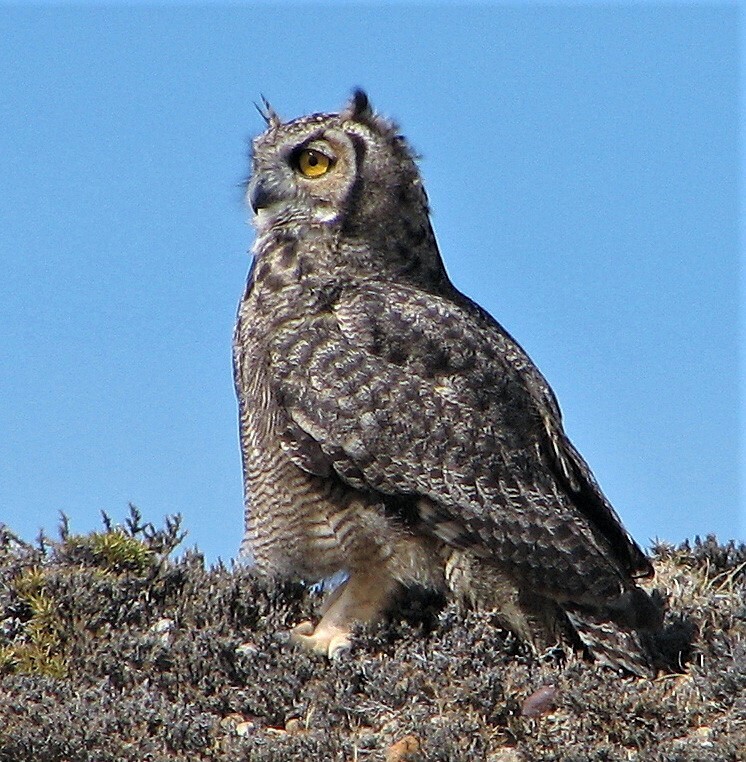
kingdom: Animalia
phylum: Chordata
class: Aves
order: Strigiformes
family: Strigidae
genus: Bubo
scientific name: Bubo magellanicus
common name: Lesser horned owl
